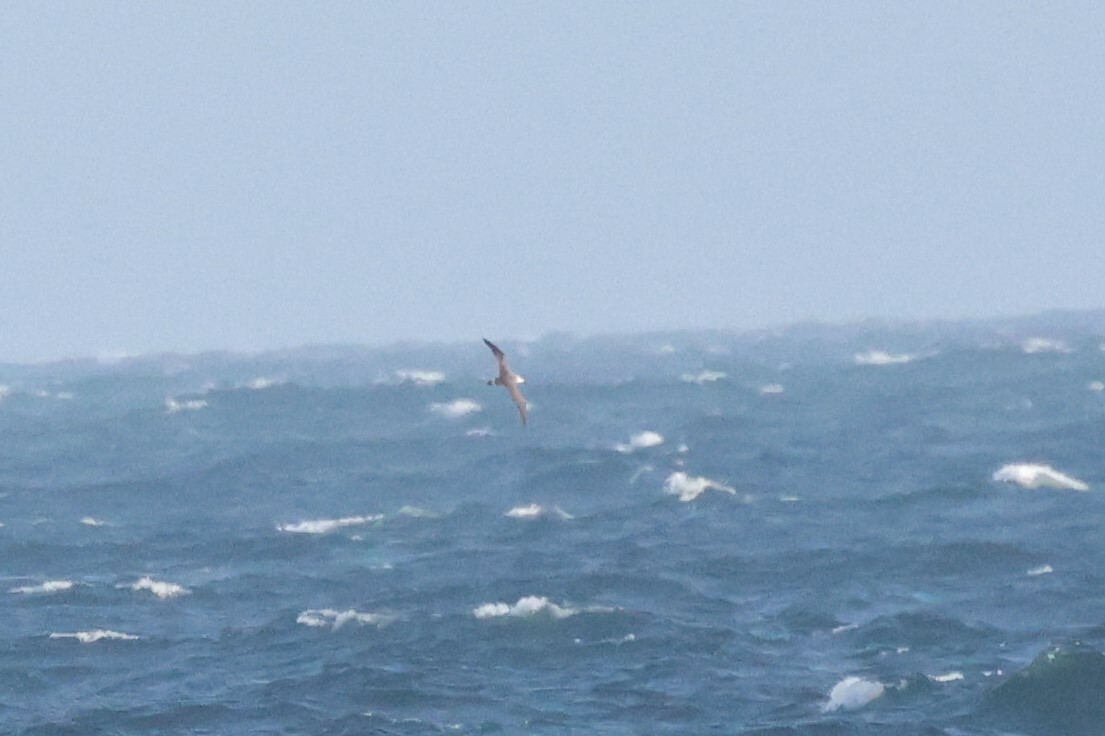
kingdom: Animalia
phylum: Chordata
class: Aves
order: Procellariiformes
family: Procellariidae
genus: Puffinus
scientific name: Puffinus gravis
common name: Great shearwater
